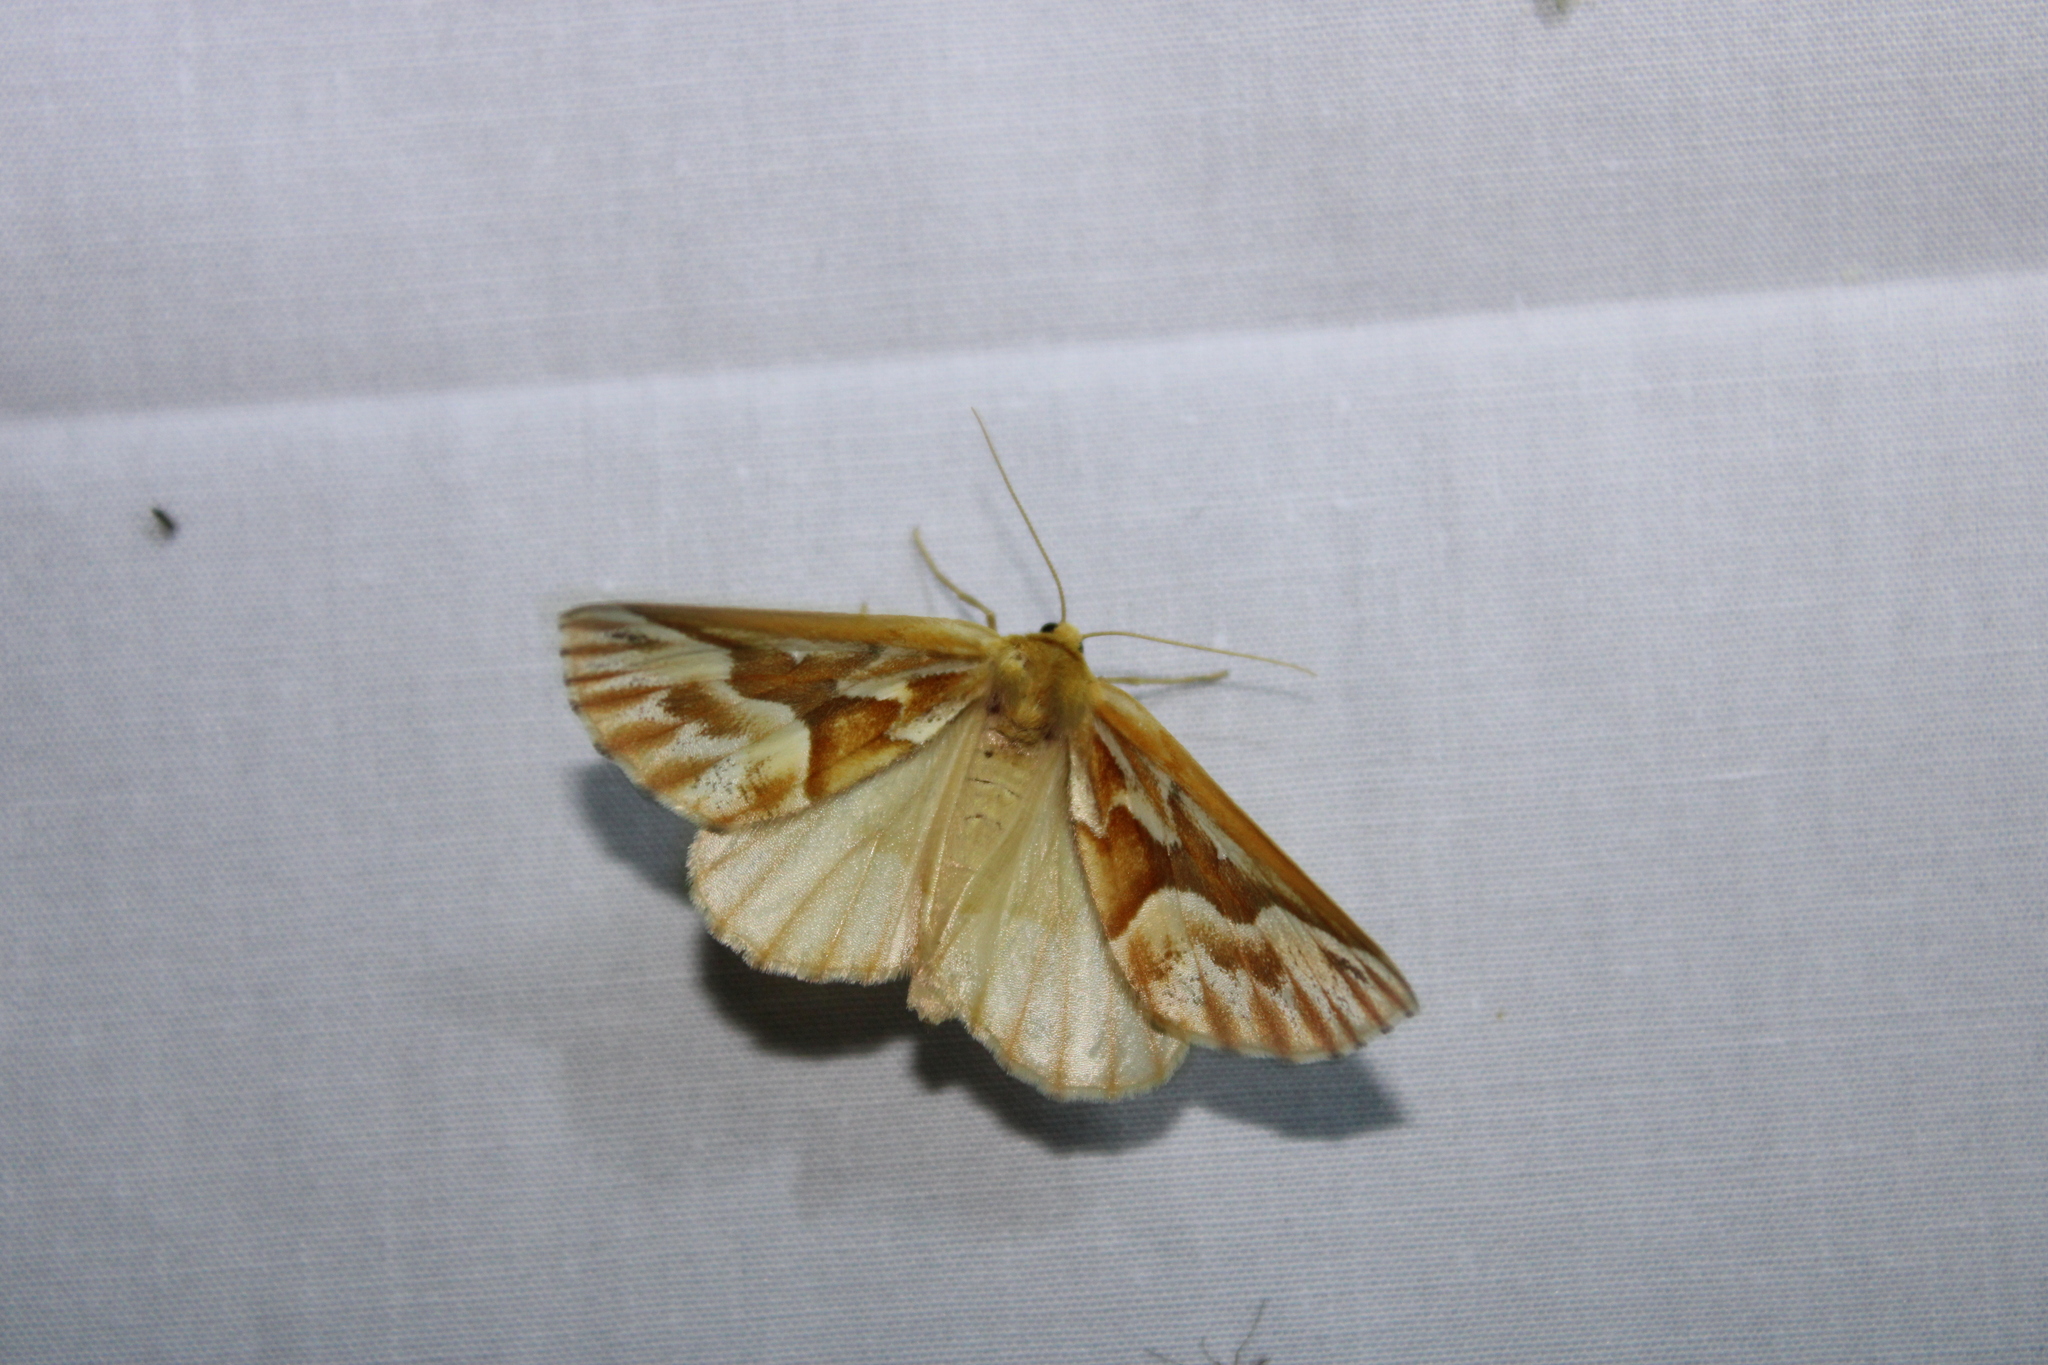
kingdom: Animalia
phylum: Arthropoda
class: Insecta
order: Lepidoptera
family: Geometridae
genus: Caripeta
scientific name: Caripeta piniata
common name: Northern pine looper moth
